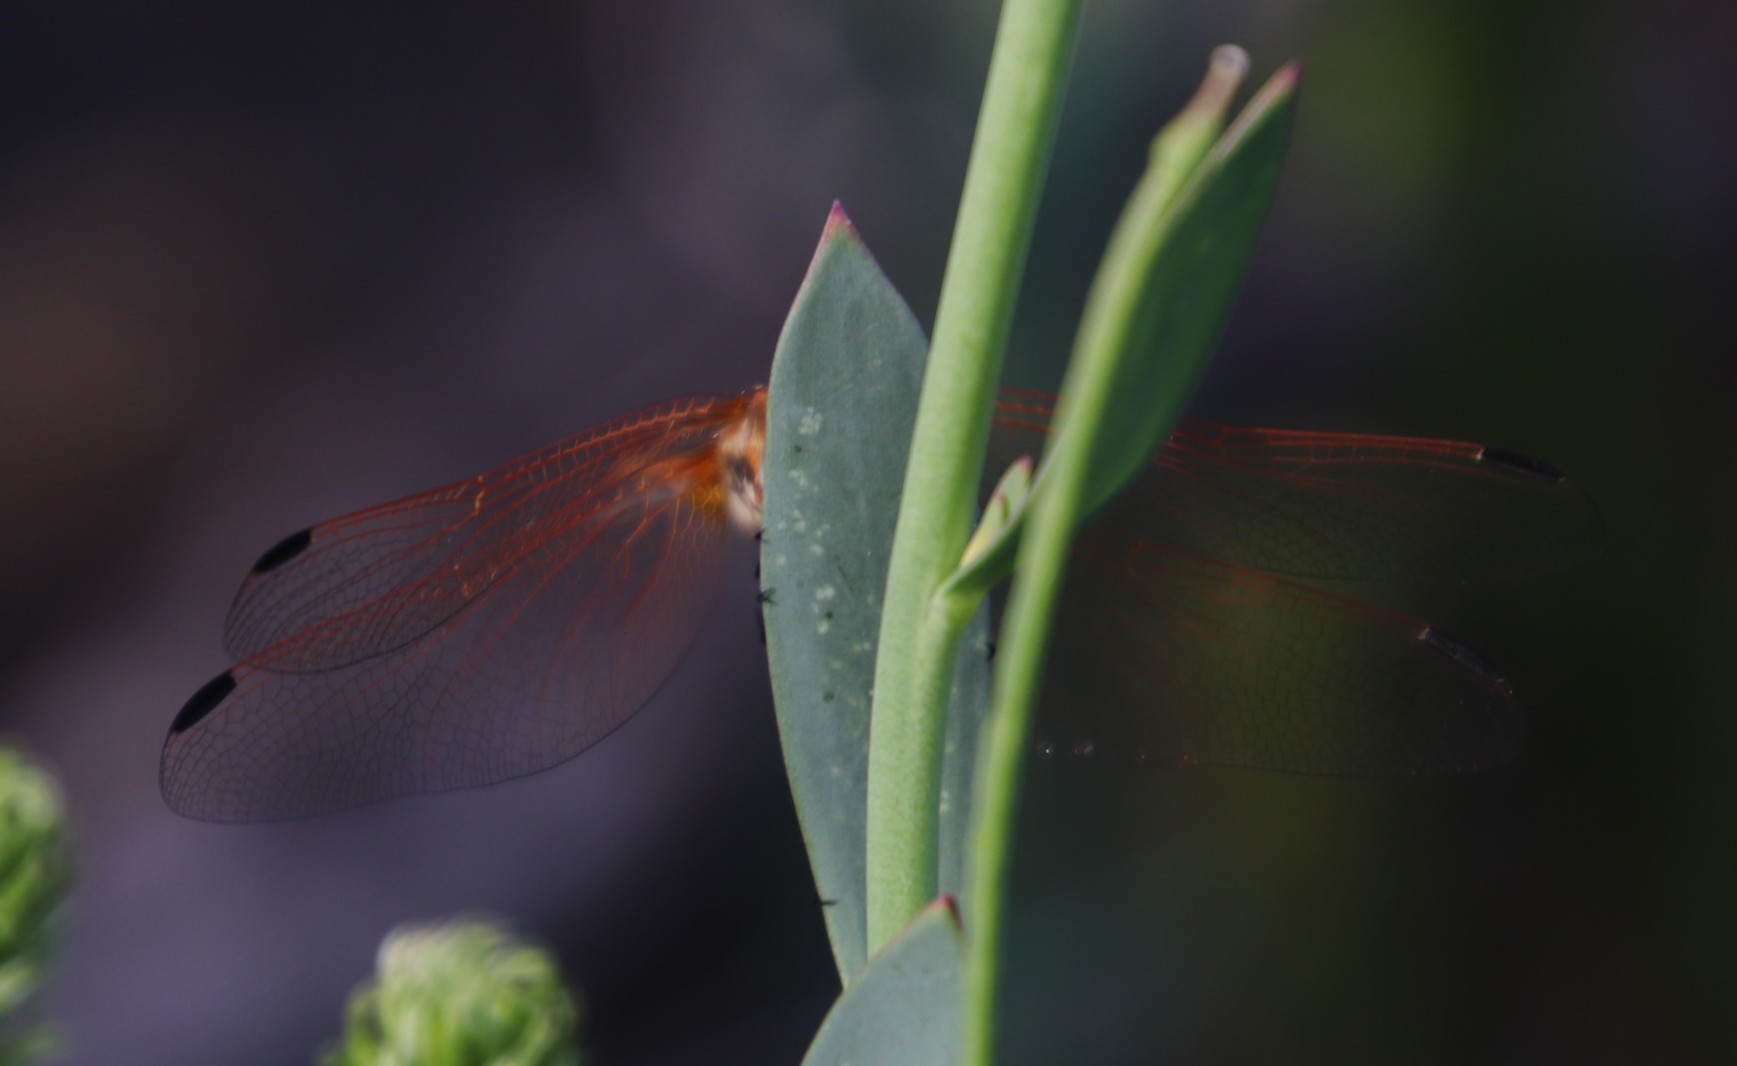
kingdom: Animalia
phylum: Arthropoda
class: Insecta
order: Odonata
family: Libellulidae
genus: Trithemis
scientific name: Trithemis arteriosa
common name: Red-veined dropwing
